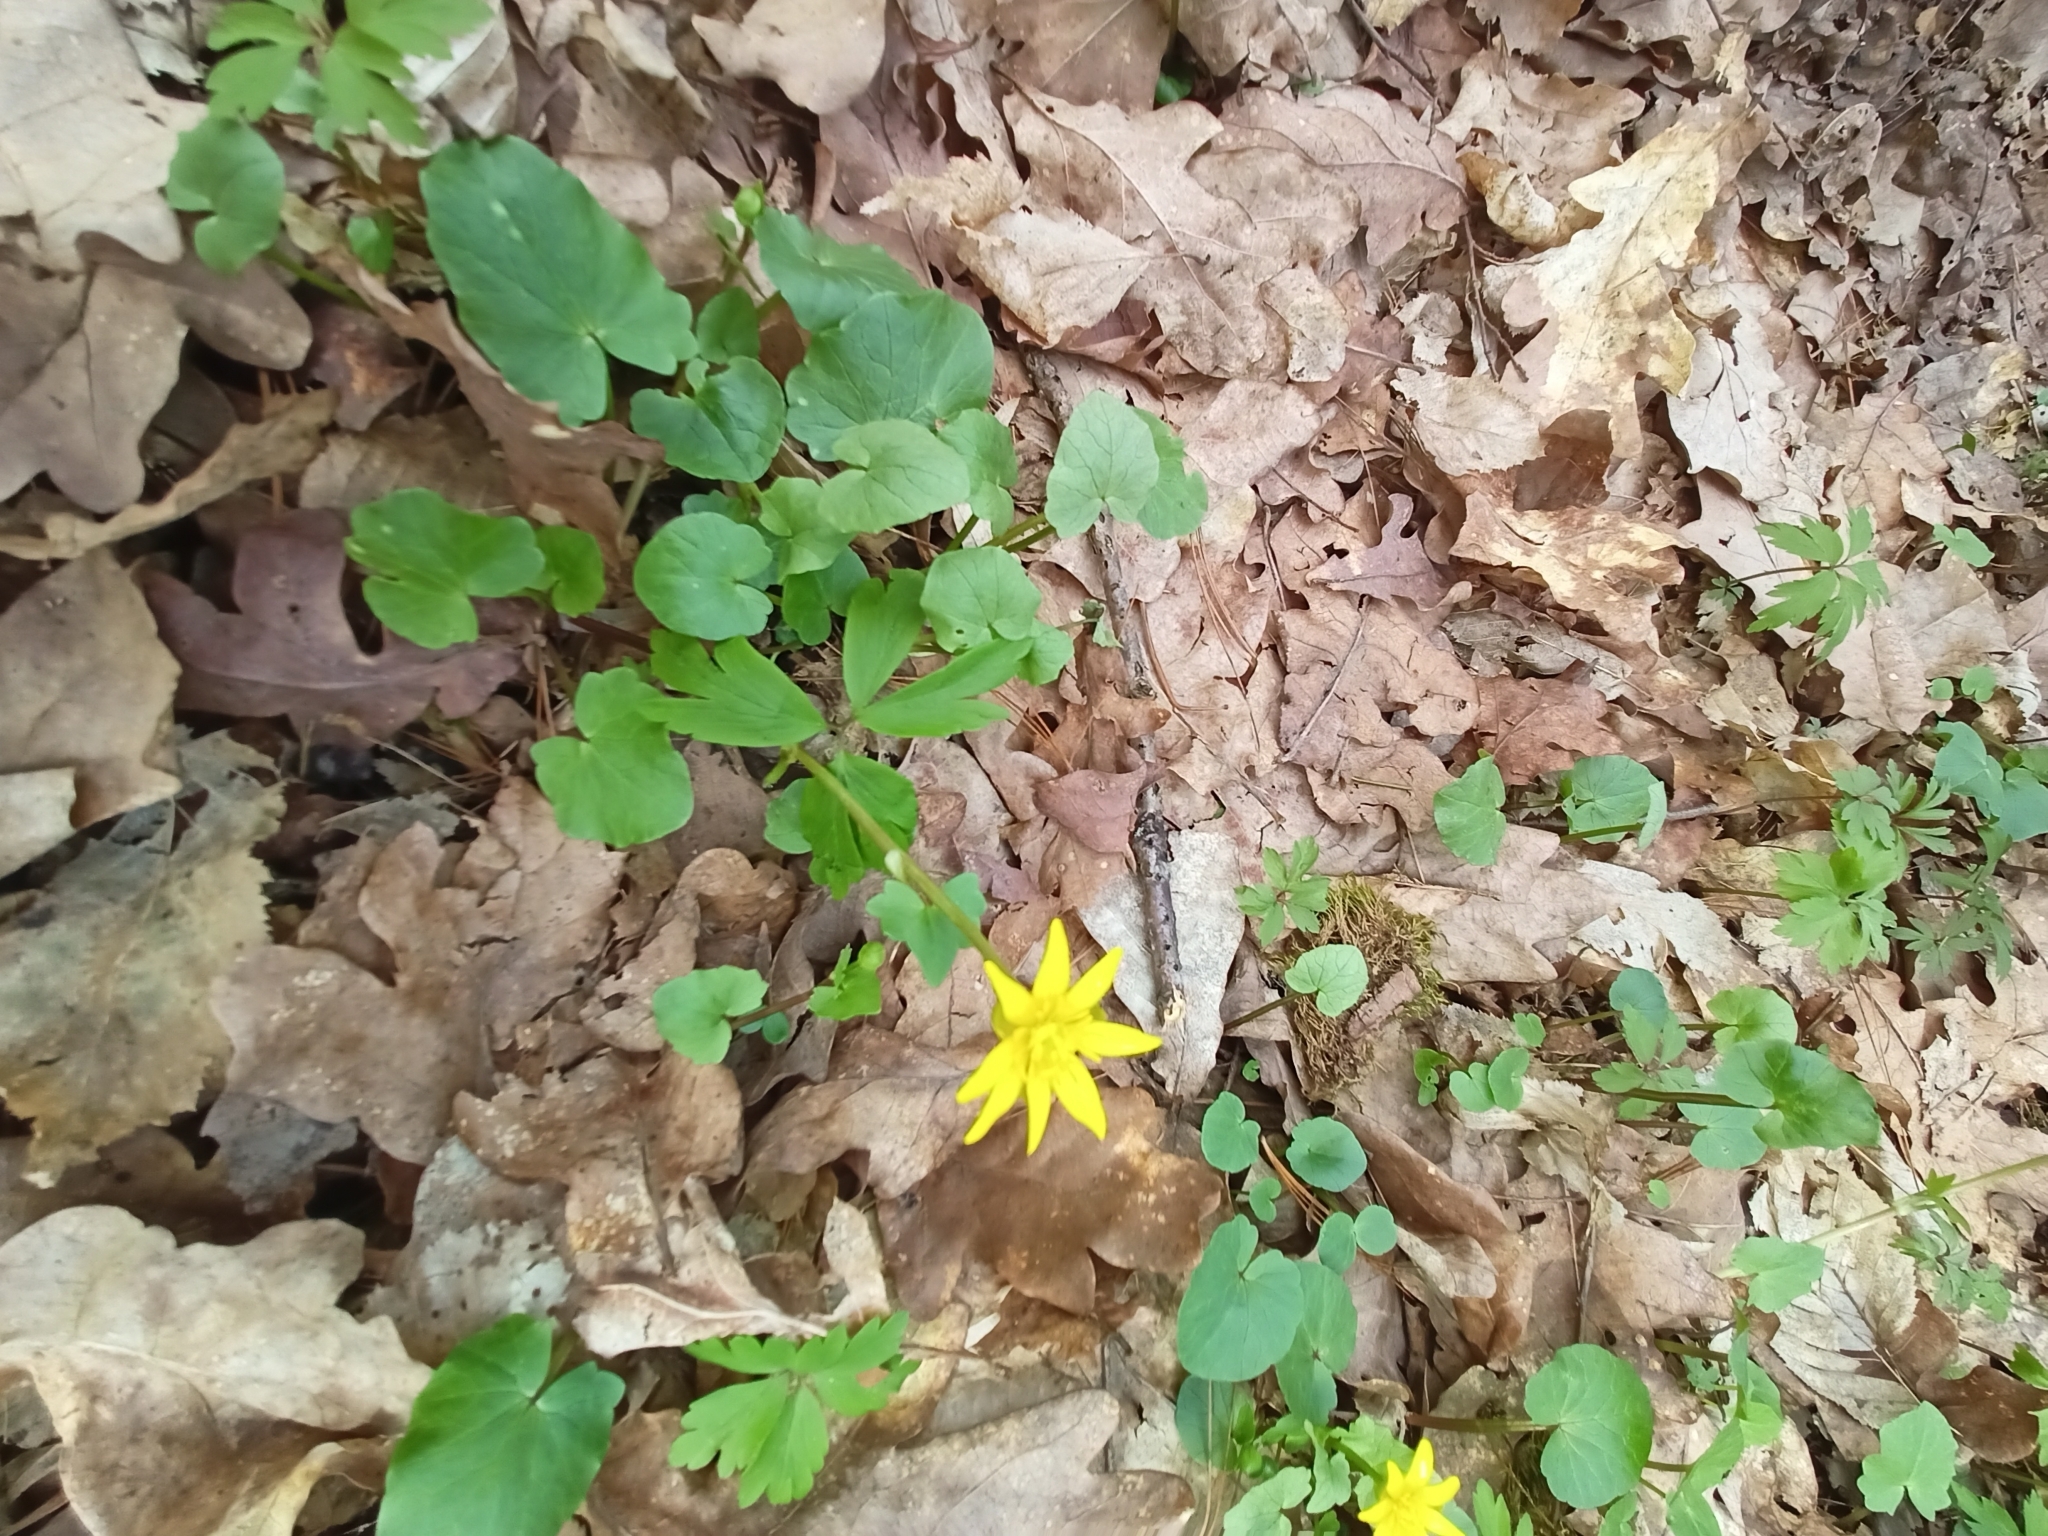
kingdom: Plantae
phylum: Tracheophyta
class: Magnoliopsida
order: Ranunculales
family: Ranunculaceae
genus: Ficaria
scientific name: Ficaria verna
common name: Lesser celandine
